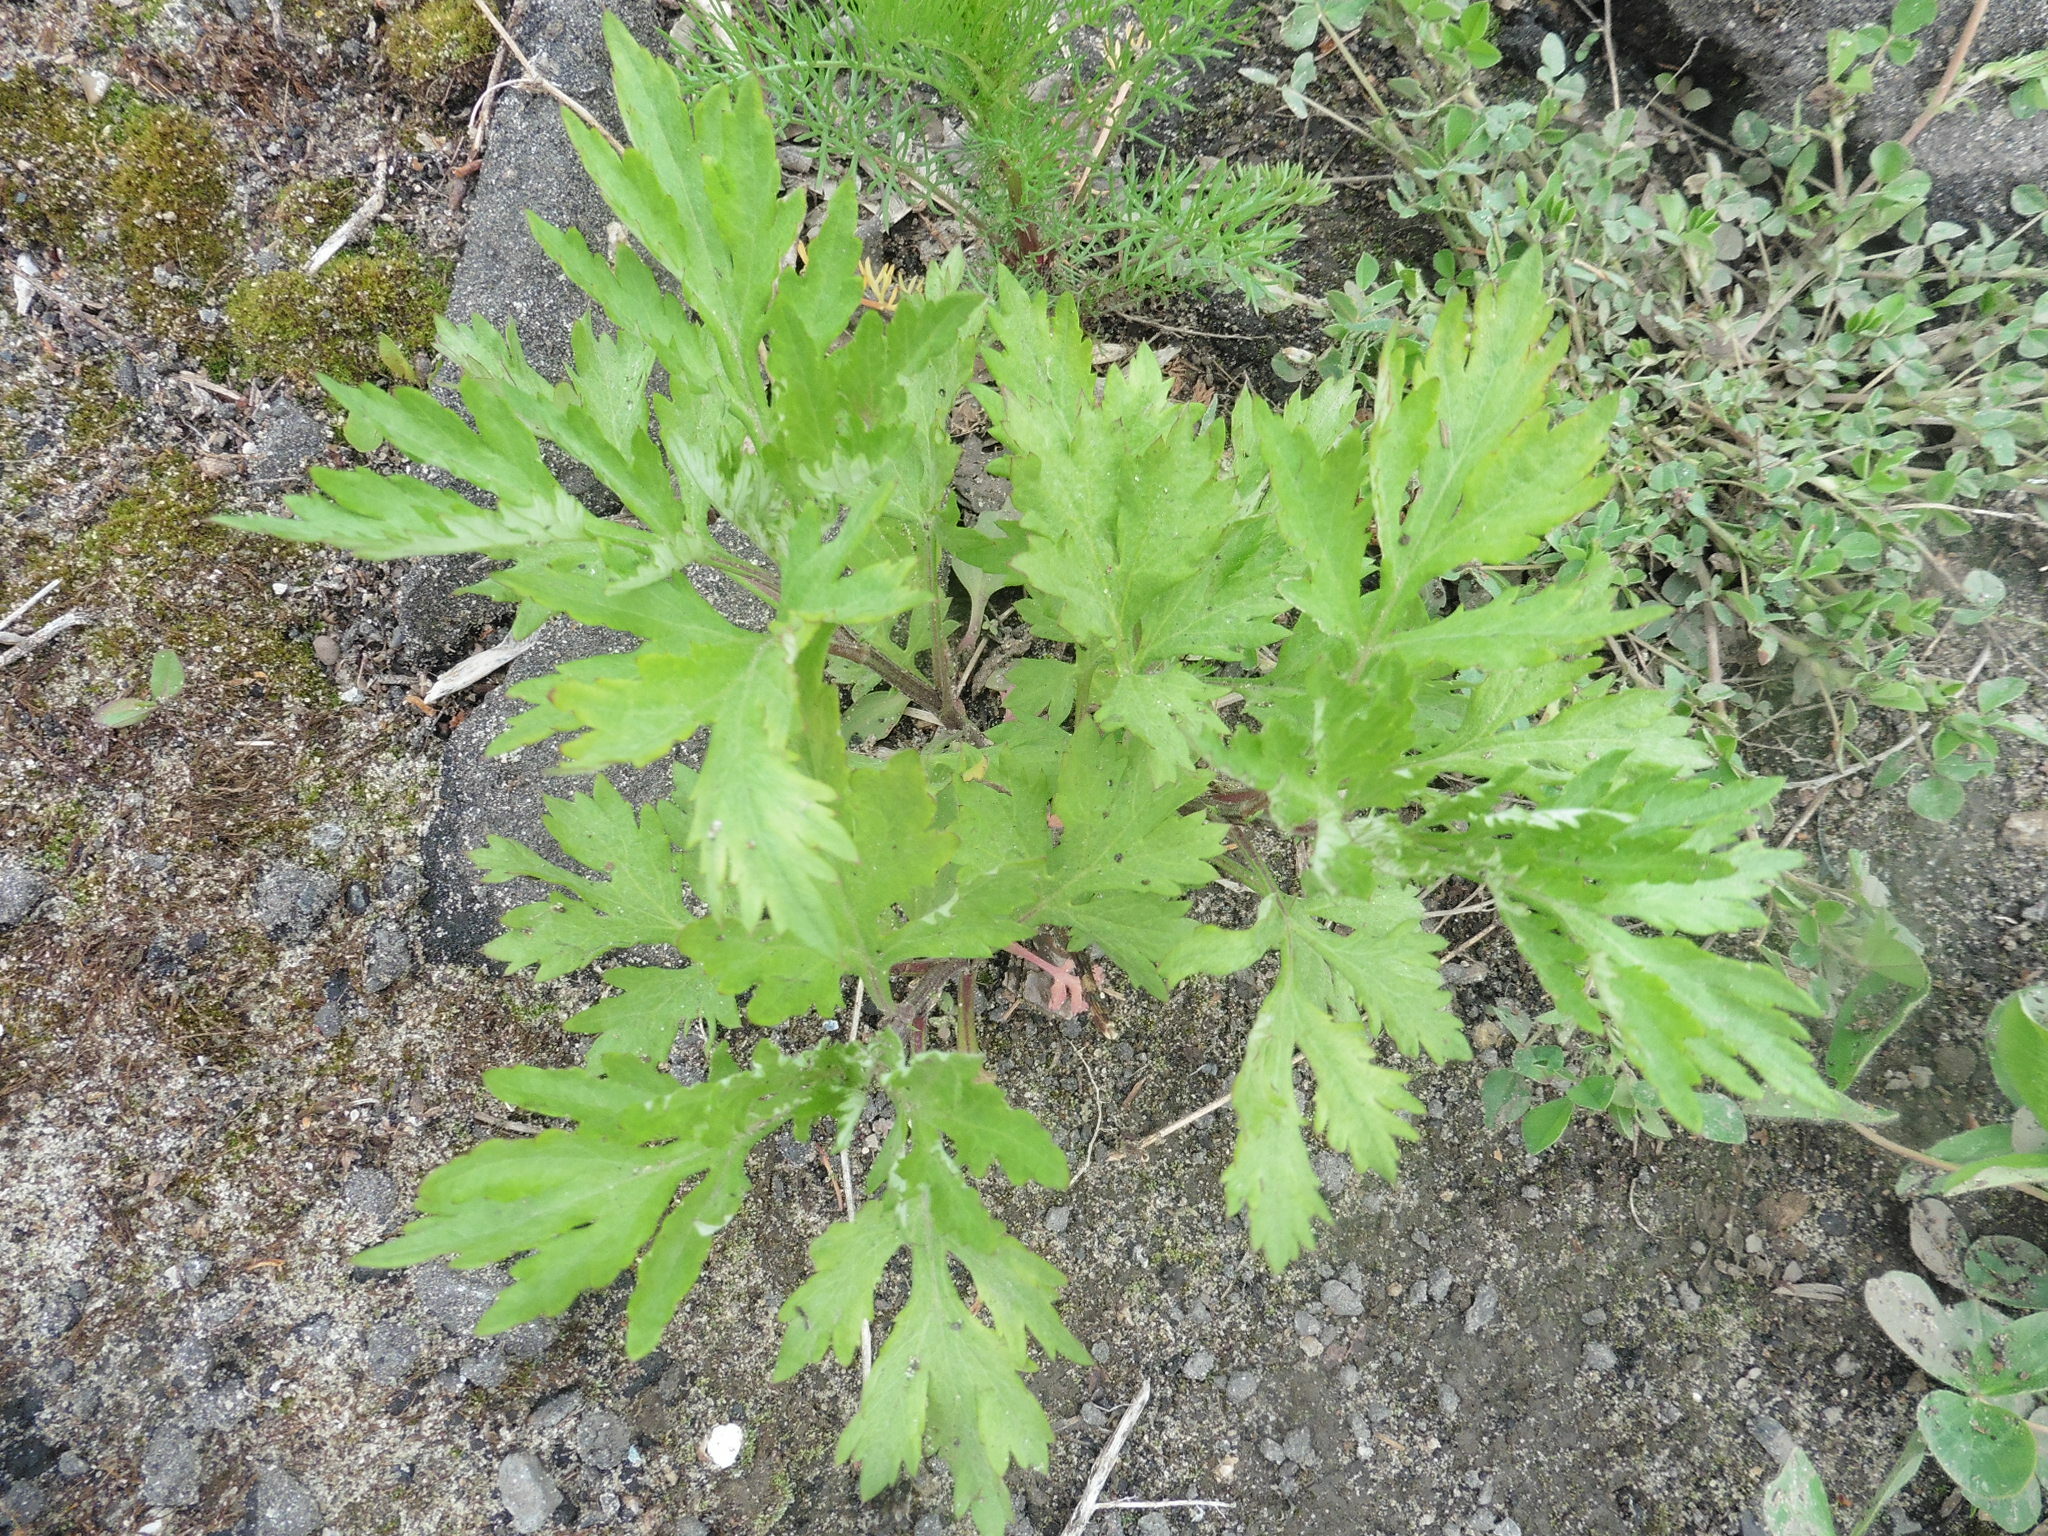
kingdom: Plantae
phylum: Tracheophyta
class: Magnoliopsida
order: Asterales
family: Asteraceae
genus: Artemisia
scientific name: Artemisia vulgaris
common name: Mugwort
